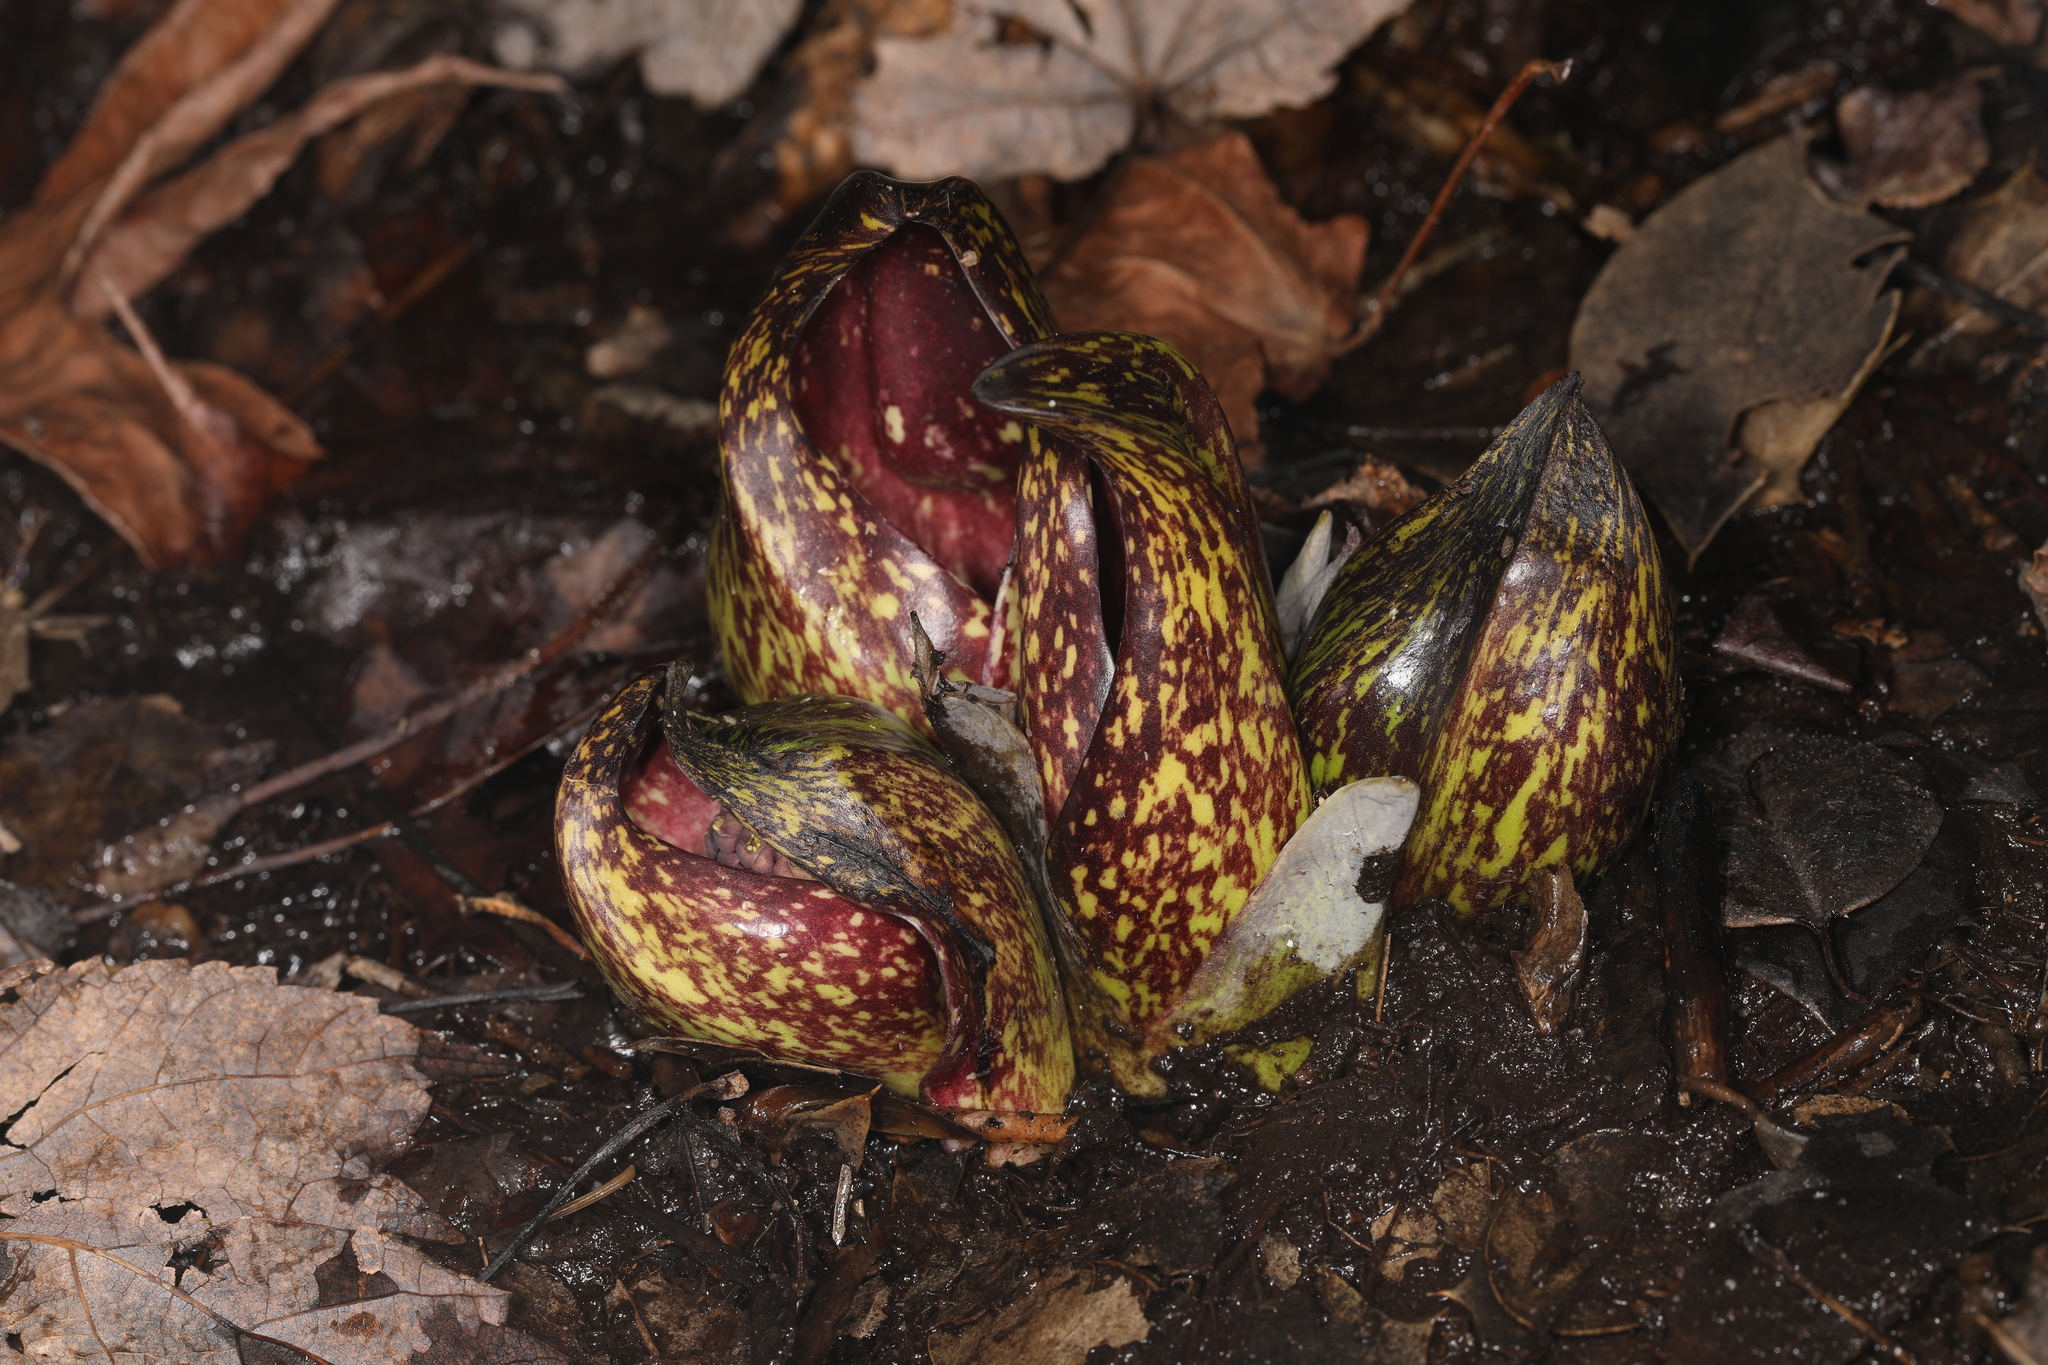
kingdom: Plantae
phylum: Tracheophyta
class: Liliopsida
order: Alismatales
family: Araceae
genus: Symplocarpus
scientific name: Symplocarpus foetidus
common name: Eastern skunk cabbage
